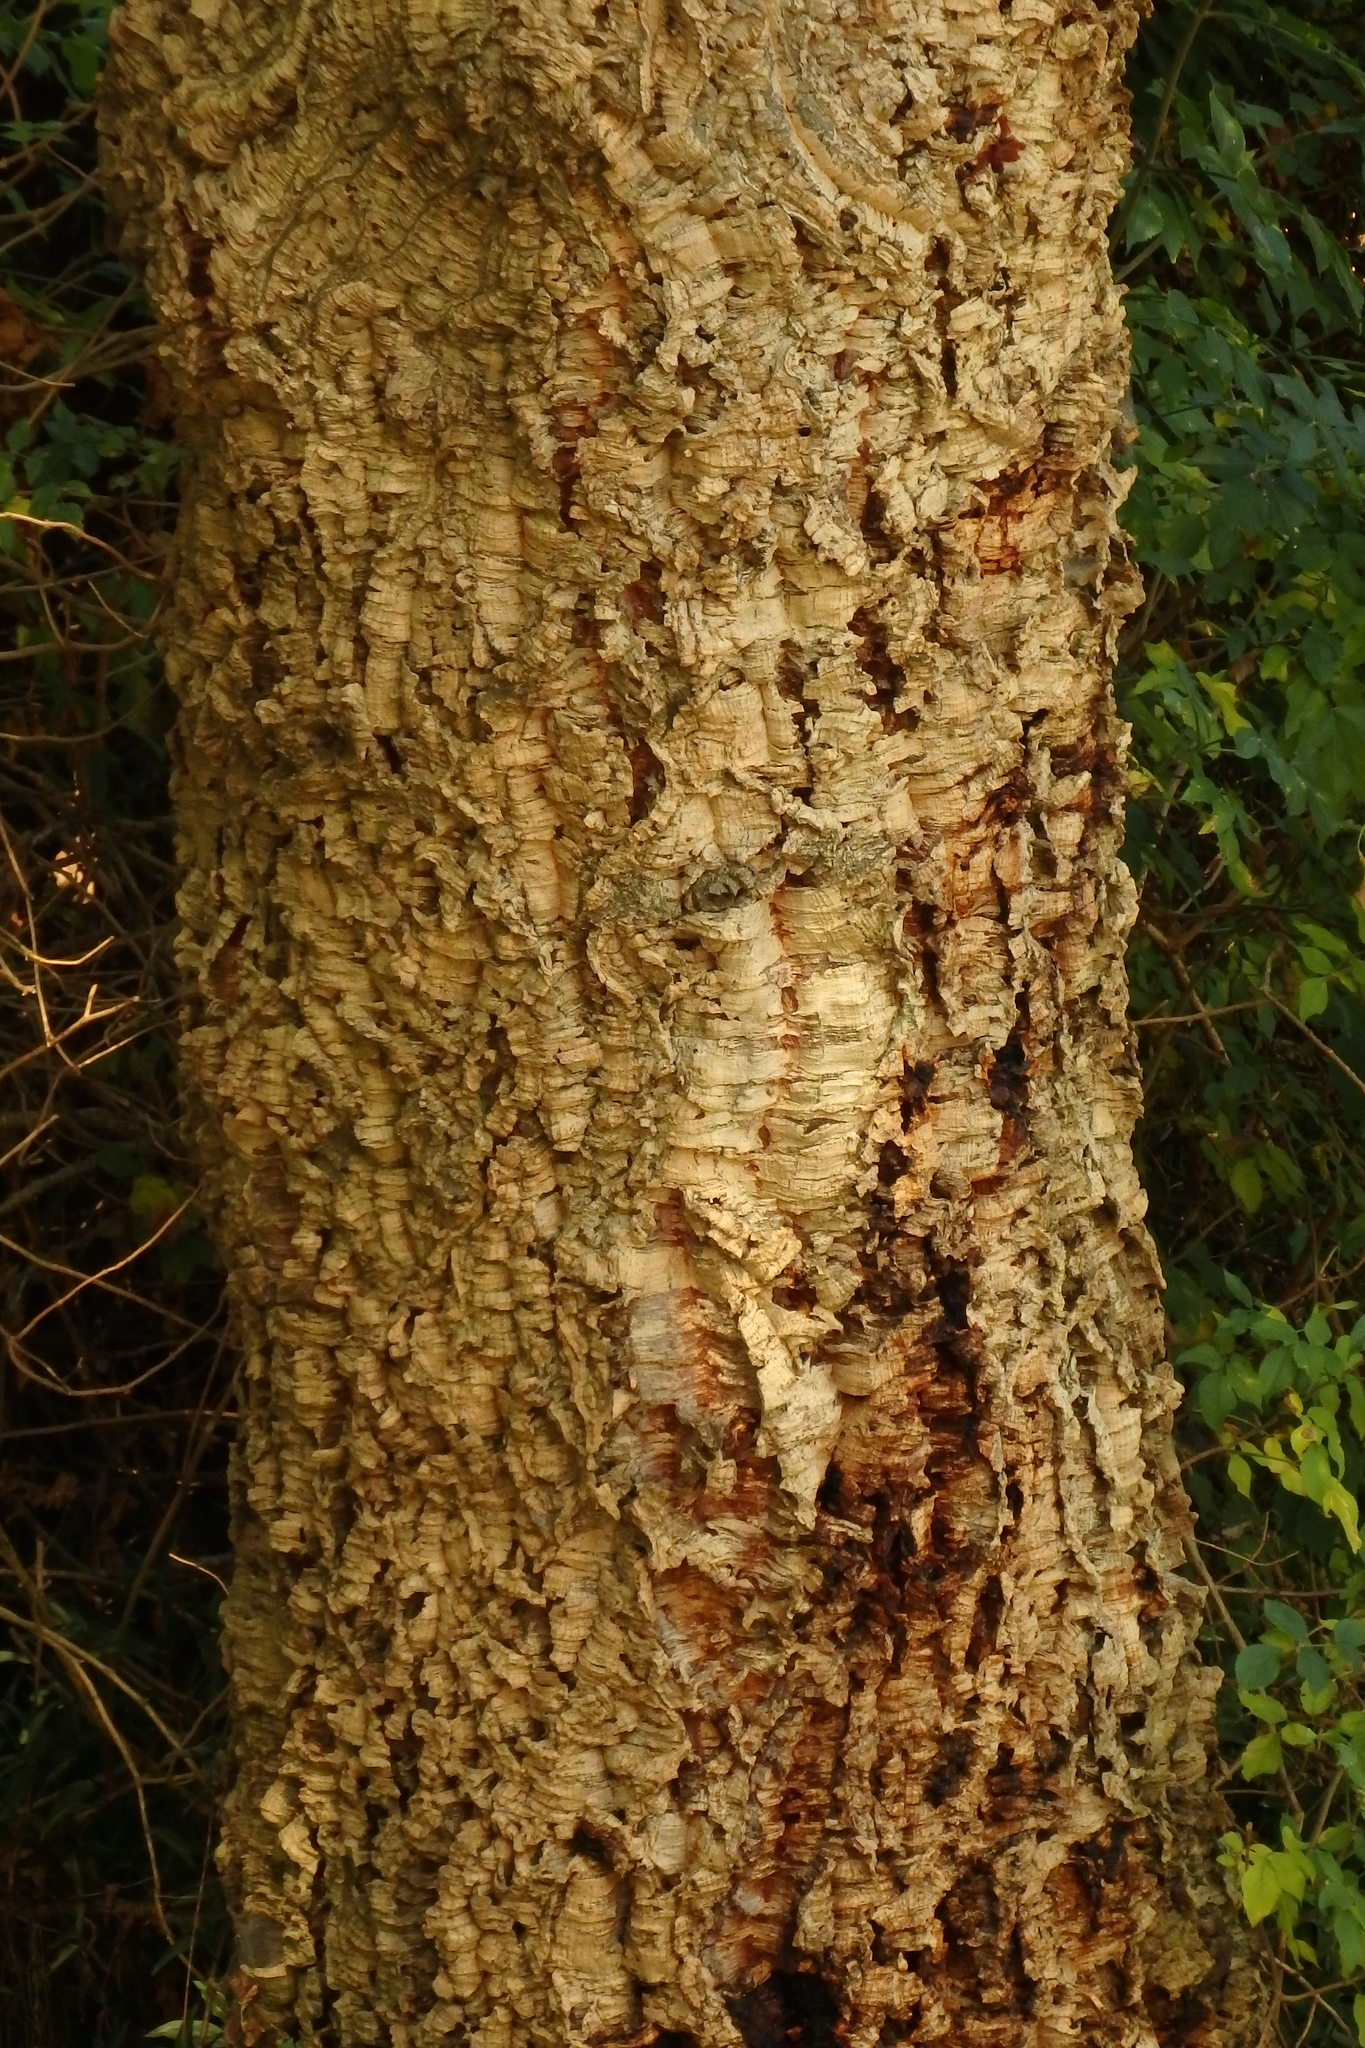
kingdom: Plantae
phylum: Tracheophyta
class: Magnoliopsida
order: Fagales
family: Fagaceae
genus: Quercus
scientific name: Quercus suber
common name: Cork oak
